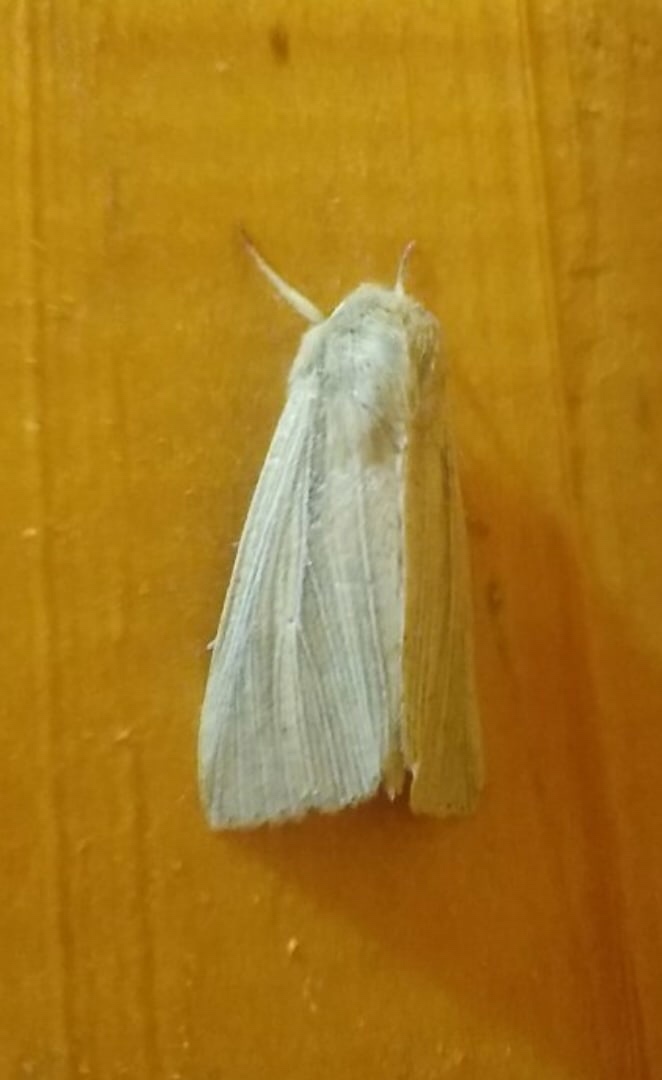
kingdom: Animalia
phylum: Arthropoda
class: Insecta
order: Lepidoptera
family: Noctuidae
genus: Mythimna
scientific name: Mythimna impura
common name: Smoky wainscot
